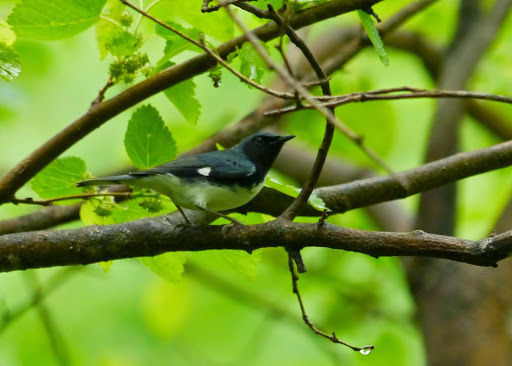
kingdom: Animalia
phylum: Chordata
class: Aves
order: Passeriformes
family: Parulidae
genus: Setophaga
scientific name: Setophaga caerulescens
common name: Black-throated blue warbler
